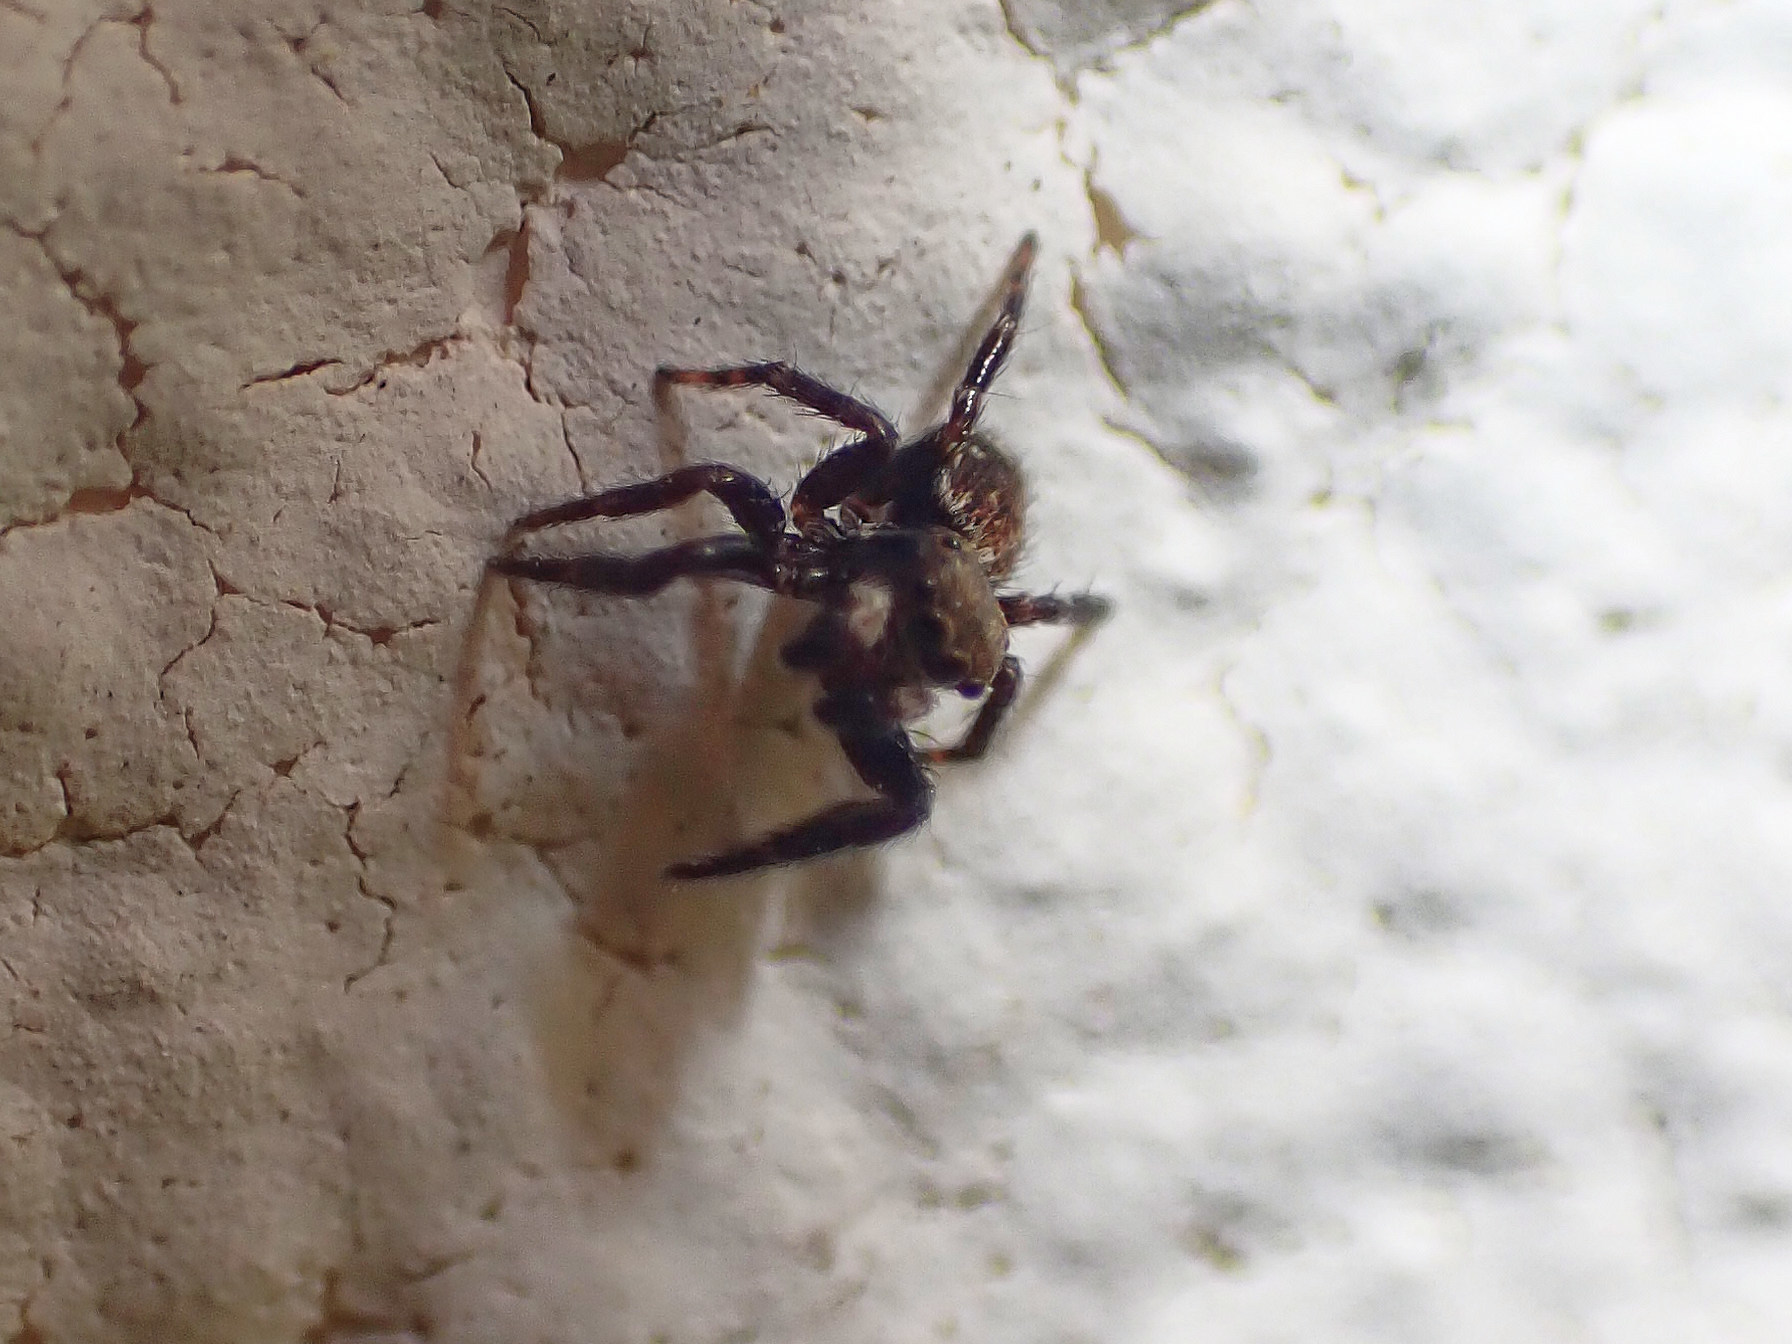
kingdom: Animalia
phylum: Arthropoda
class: Arachnida
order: Araneae
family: Salticidae
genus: Pseudeuophrys
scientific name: Pseudeuophrys erratica
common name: Jumping spider
